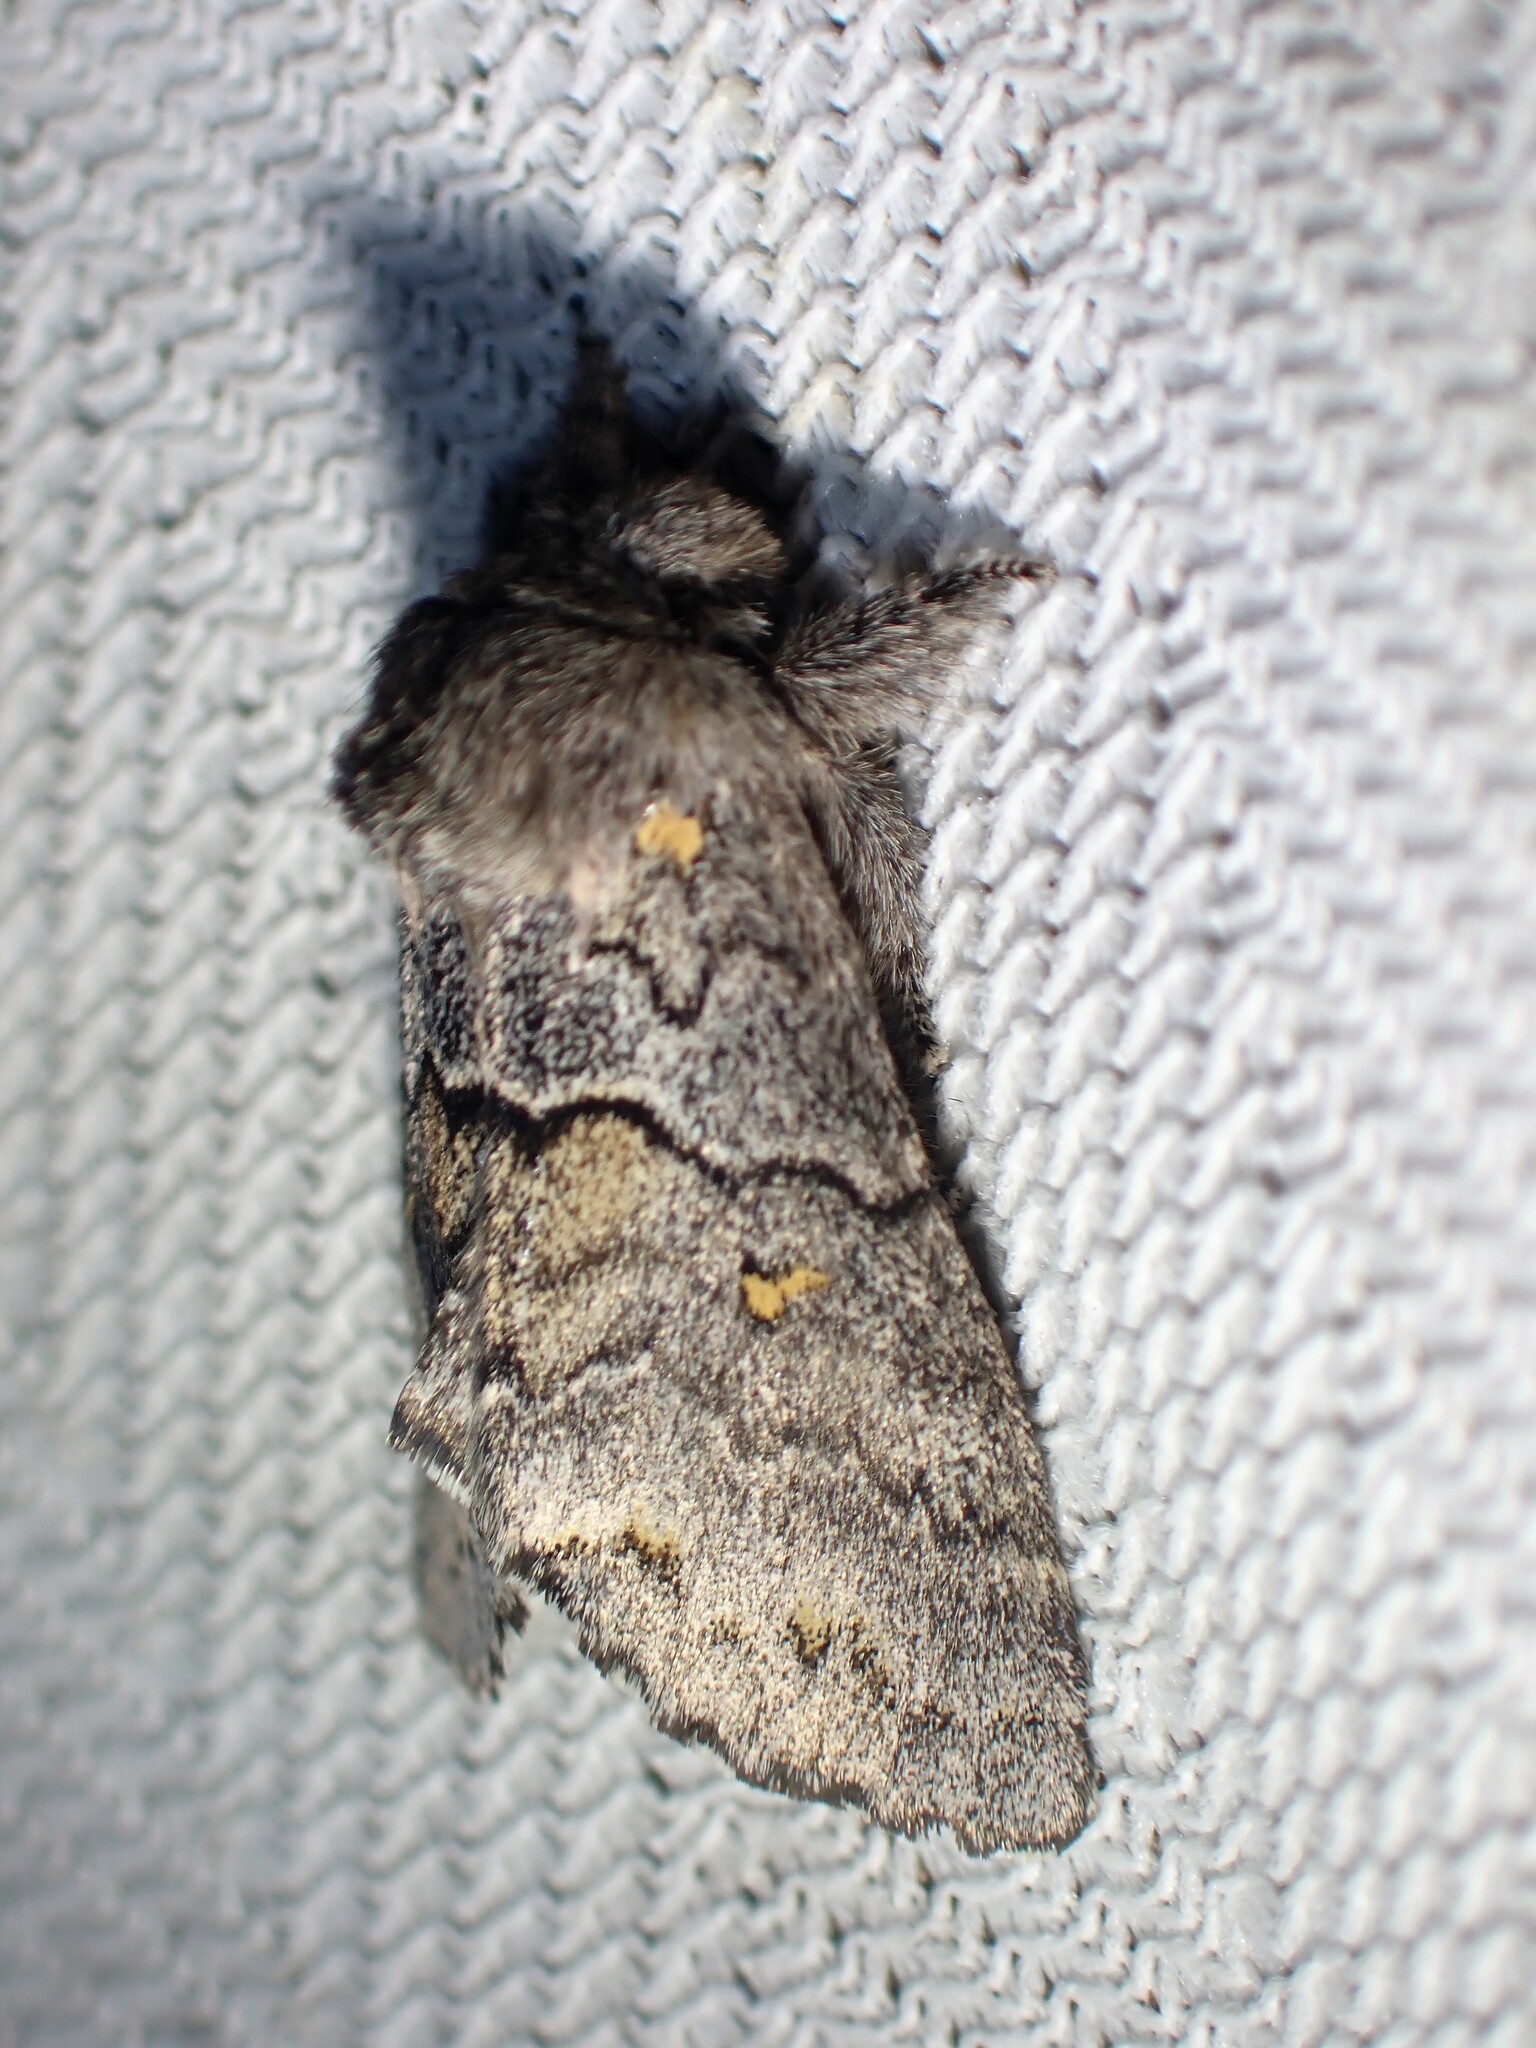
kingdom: Animalia
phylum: Arthropoda
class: Insecta
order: Lepidoptera
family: Notodontidae
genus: Gluphisia
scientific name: Gluphisia avimacula
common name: Four-spotted gluphisia moth
